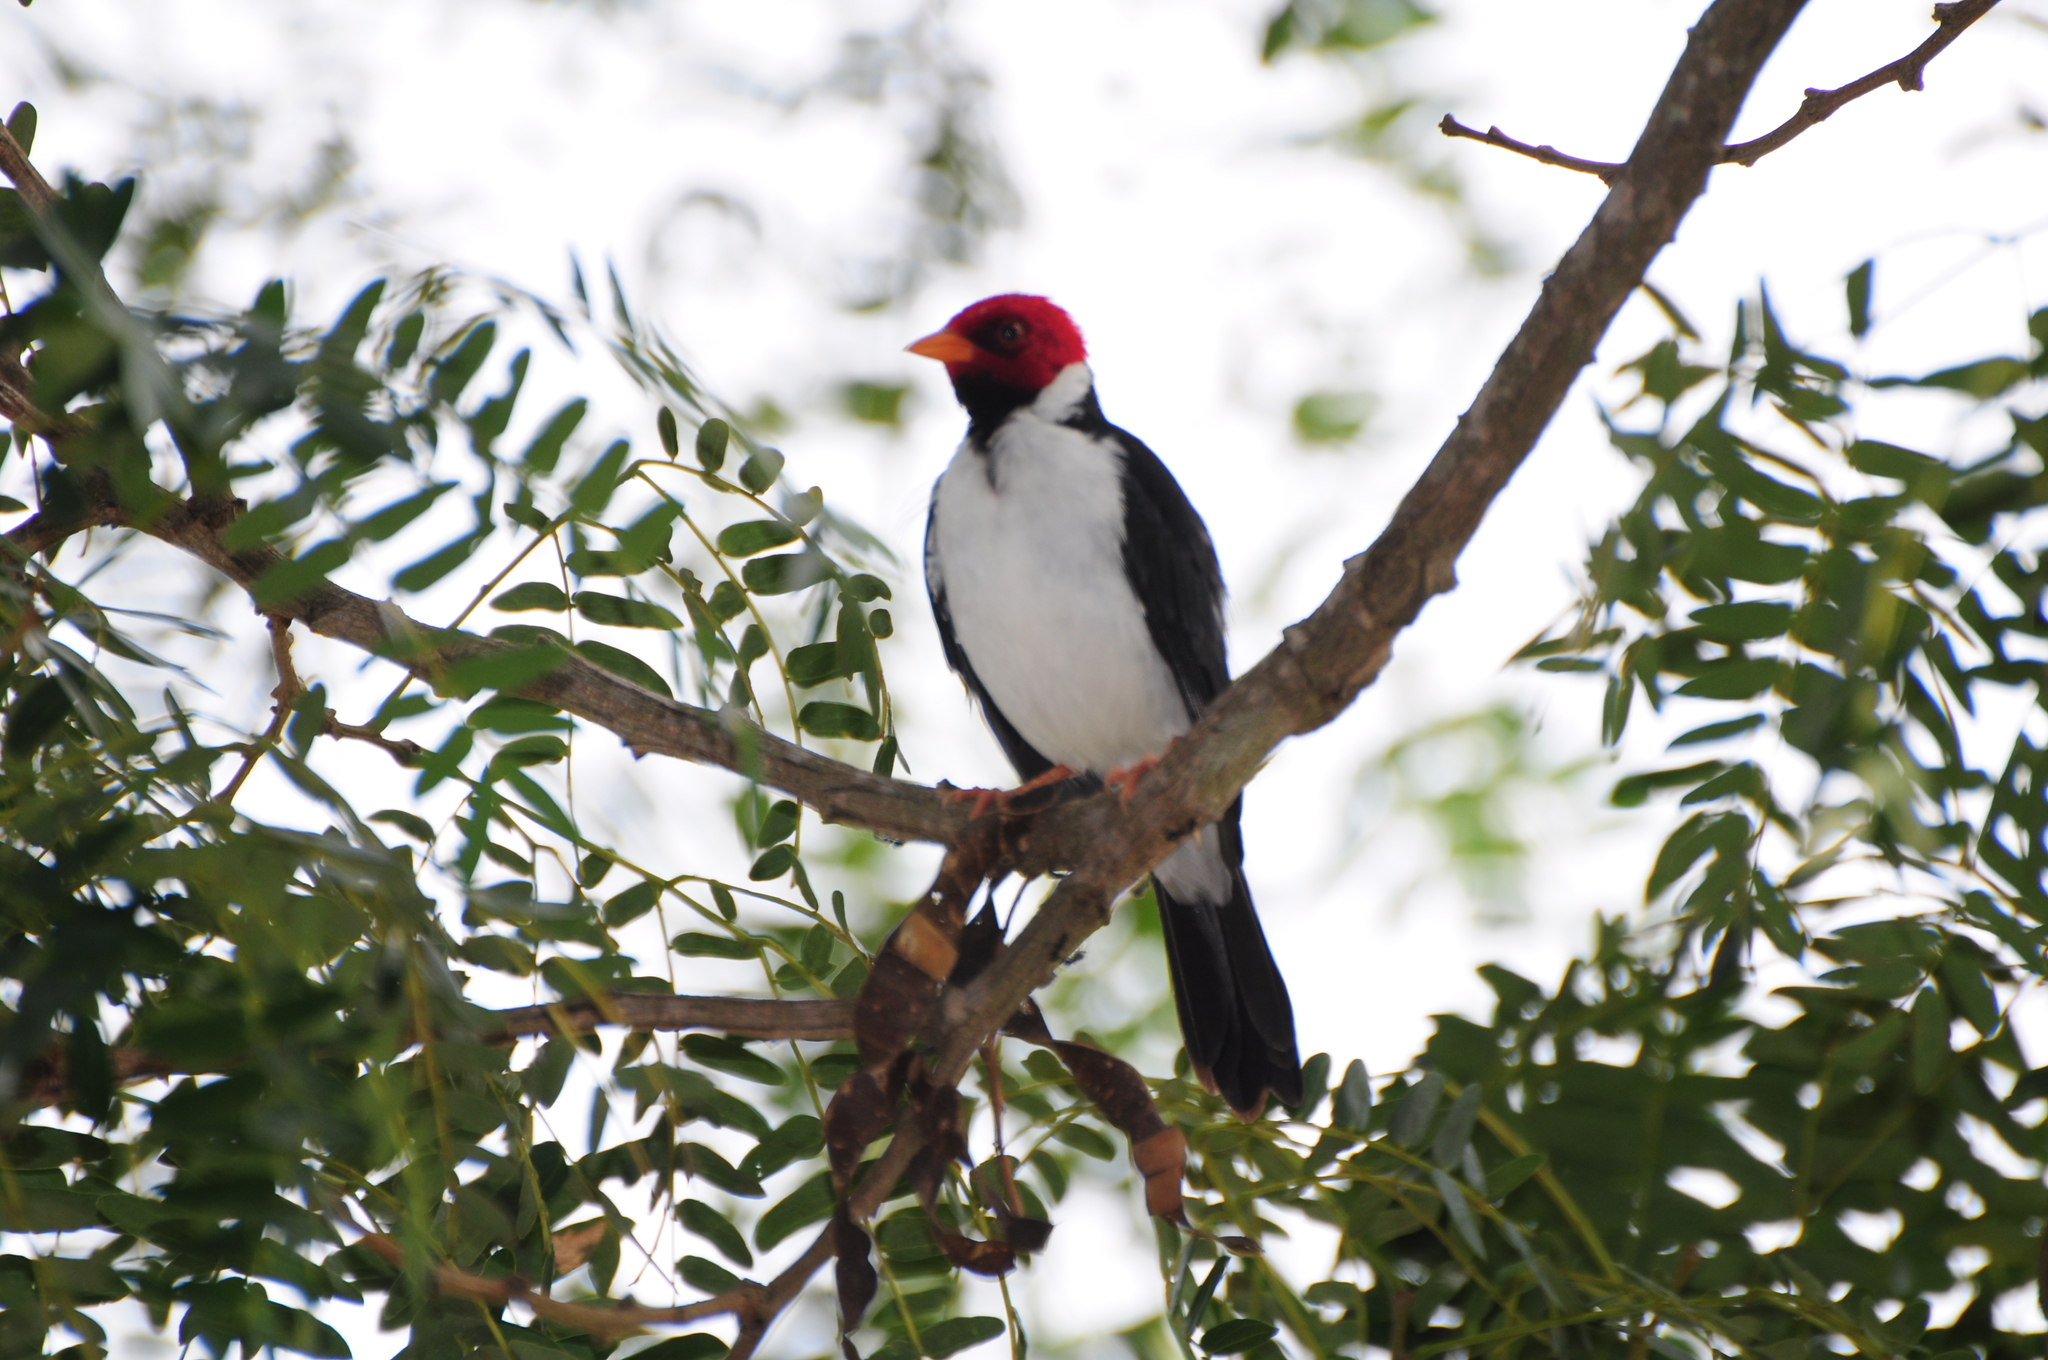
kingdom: Animalia
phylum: Chordata
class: Aves
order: Passeriformes
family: Thraupidae
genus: Paroaria
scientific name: Paroaria capitata
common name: Yellow-billed cardinal
